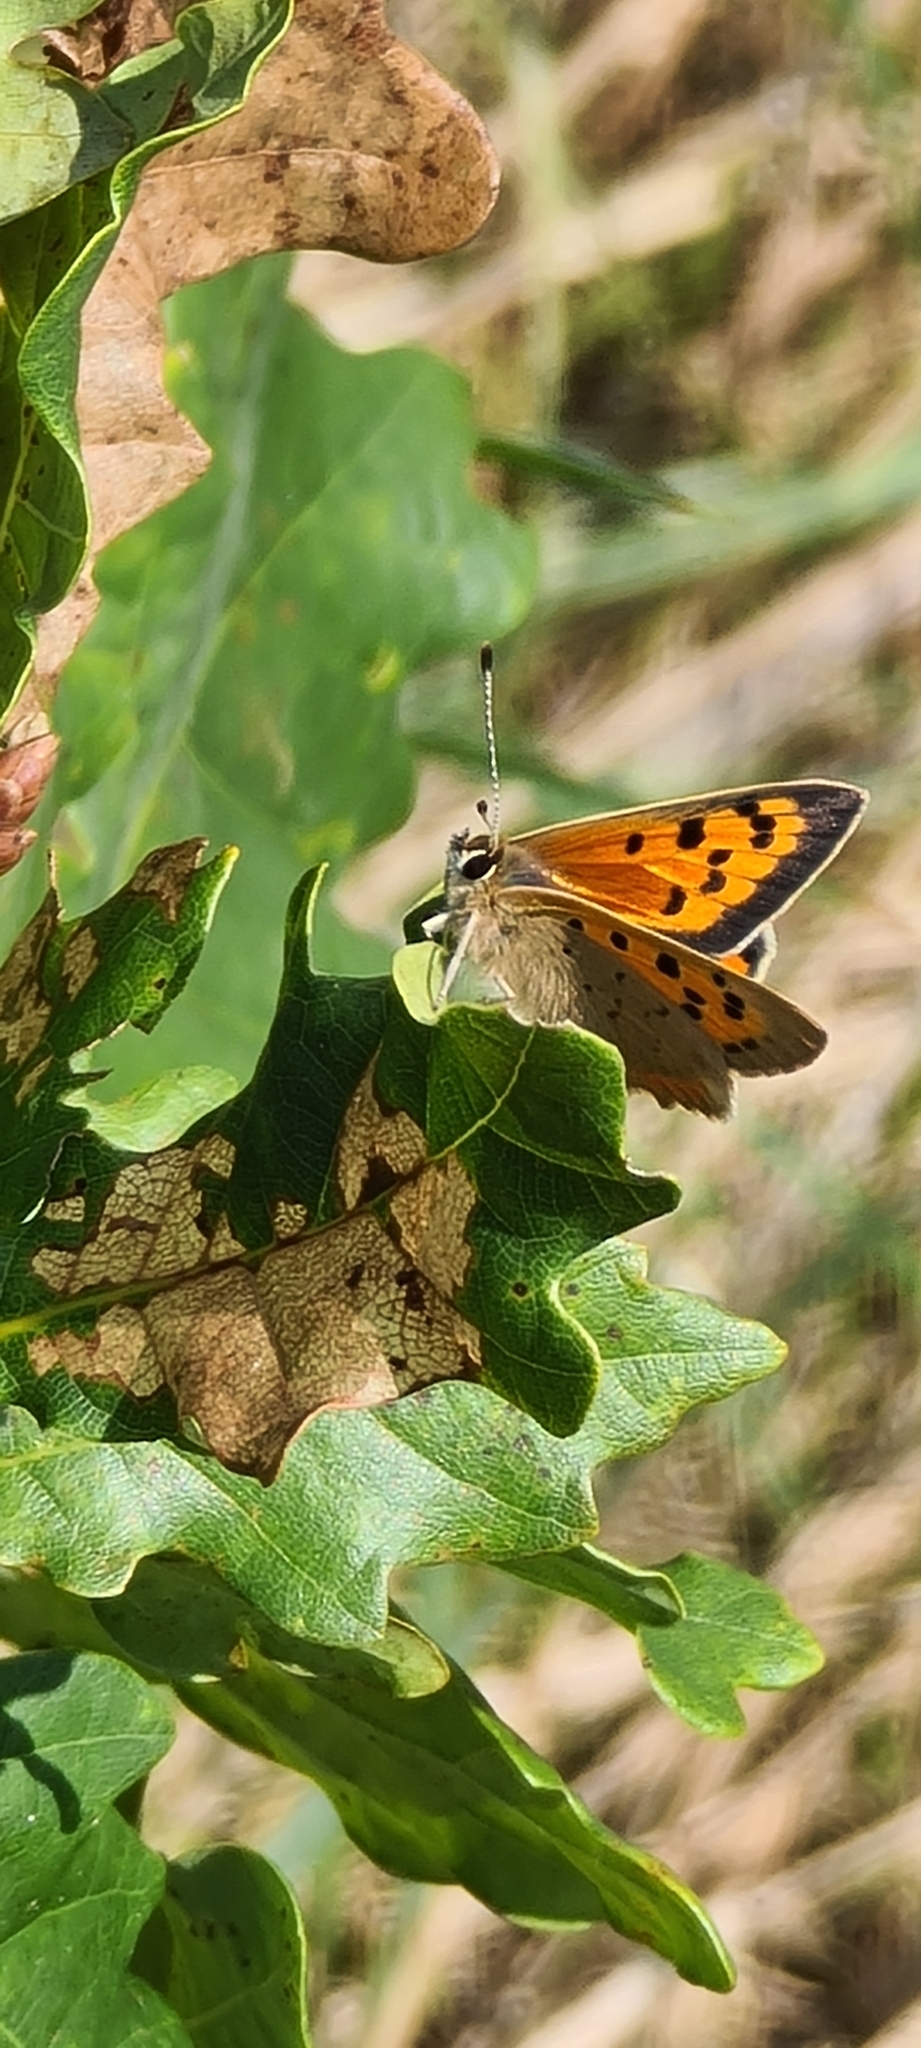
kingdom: Animalia
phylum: Arthropoda
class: Insecta
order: Lepidoptera
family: Lycaenidae
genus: Lycaena
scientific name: Lycaena phlaeas
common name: Small copper
